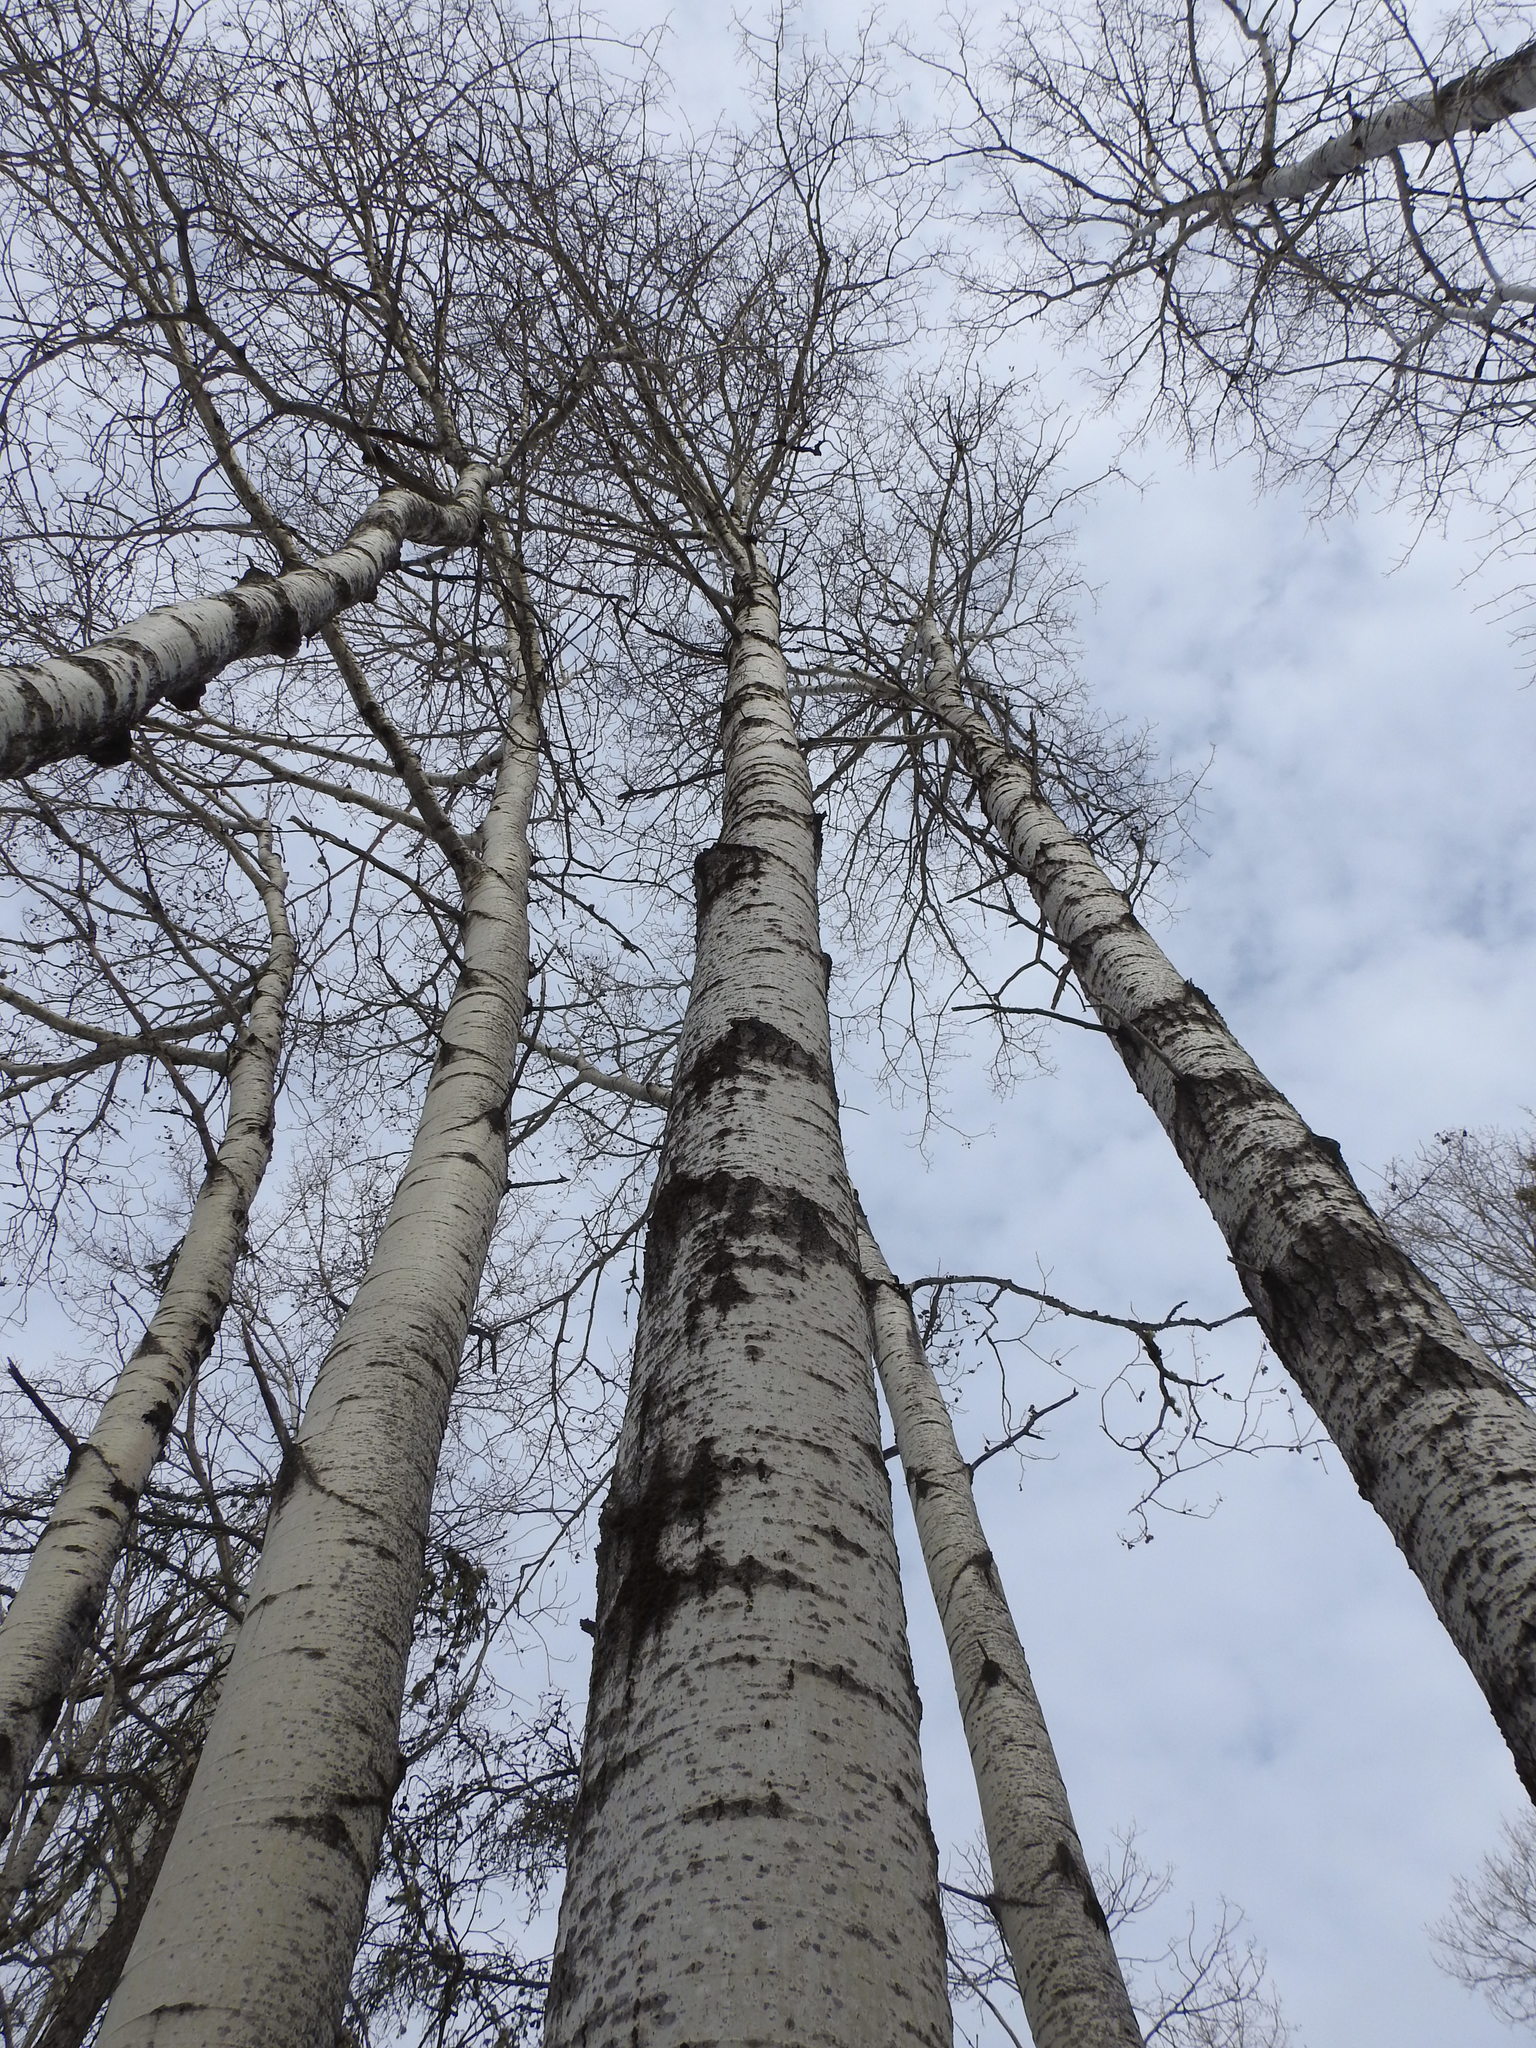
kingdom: Plantae
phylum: Tracheophyta
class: Magnoliopsida
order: Malpighiales
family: Salicaceae
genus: Populus
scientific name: Populus tremuloides
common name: Quaking aspen
